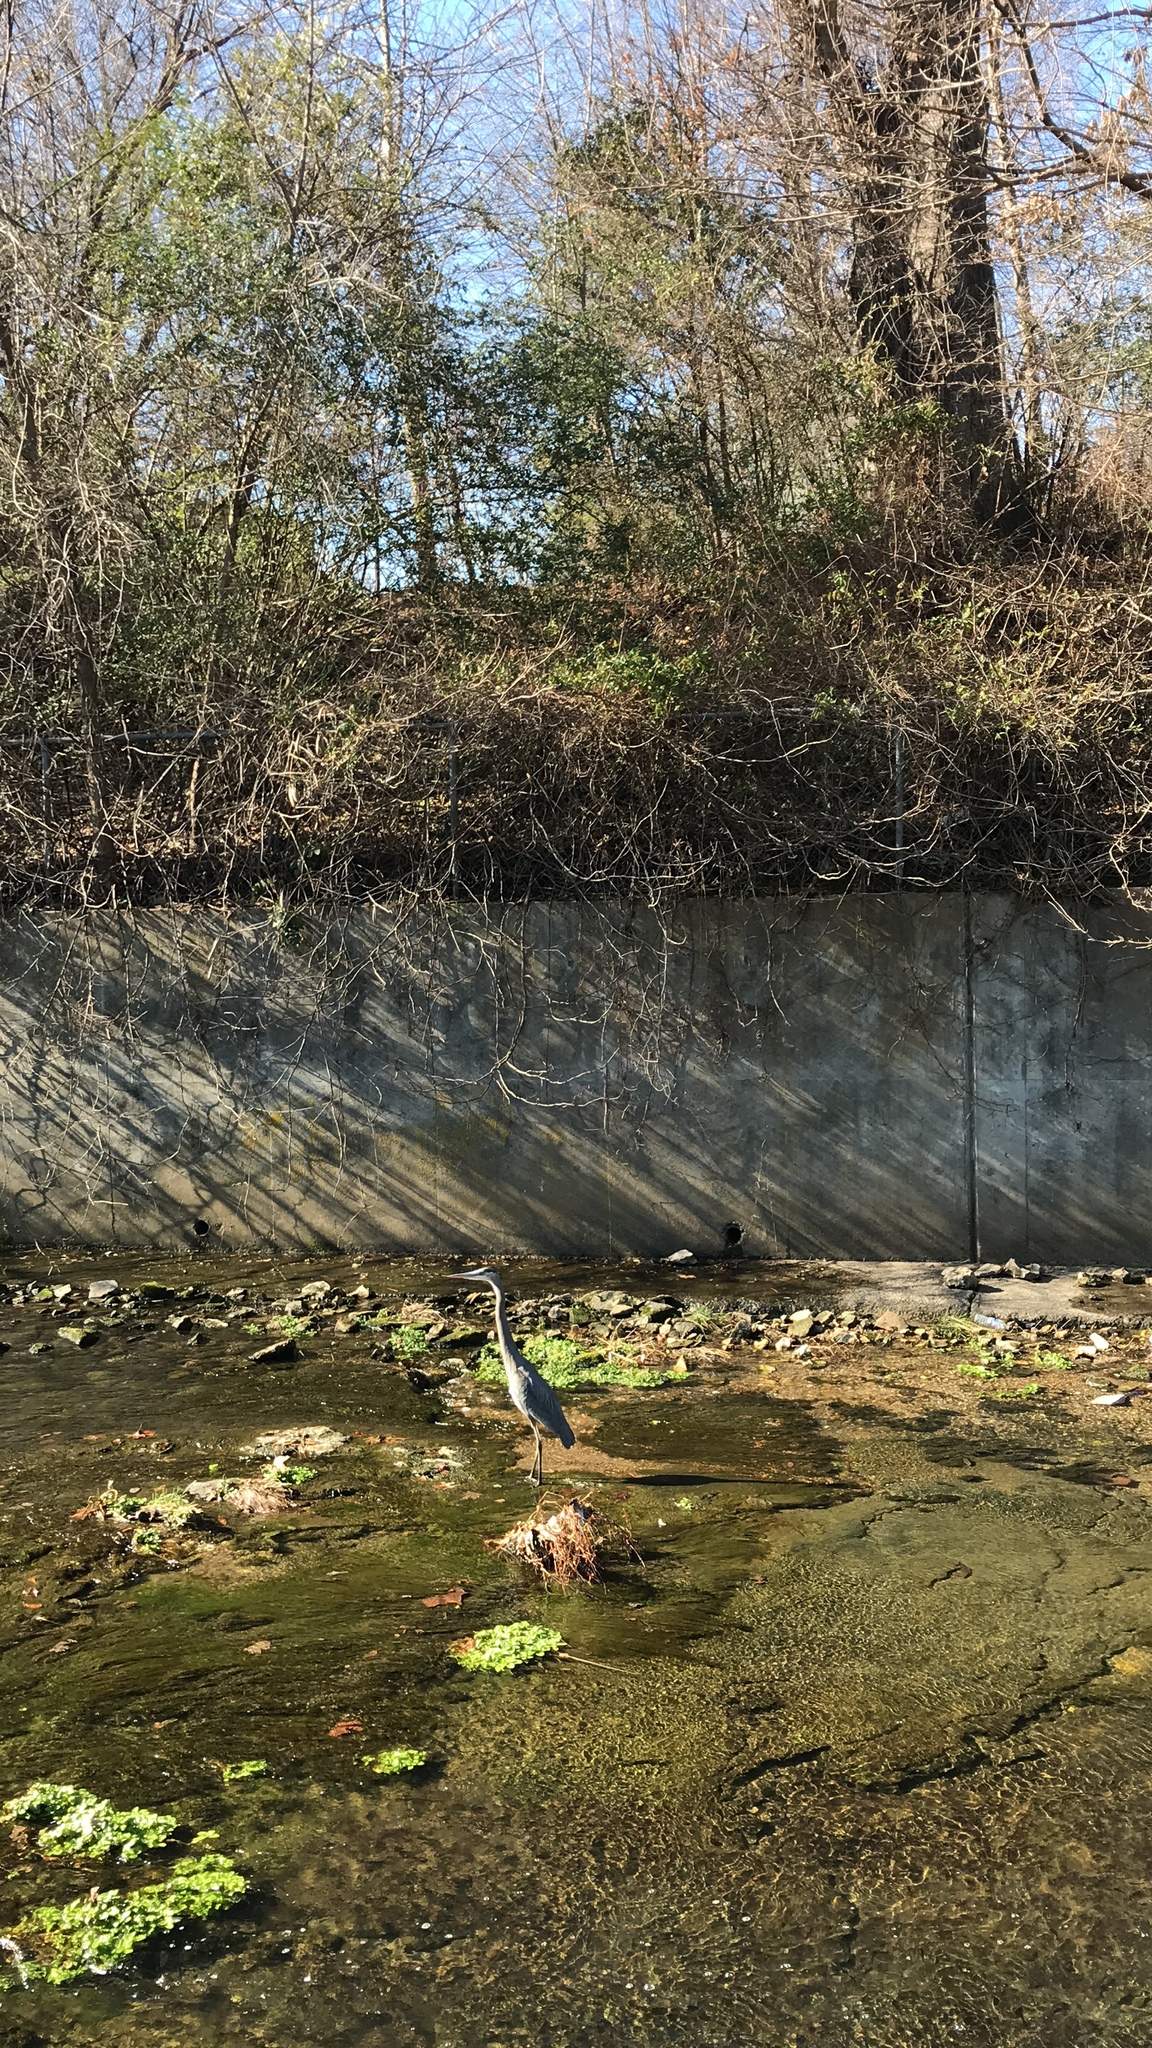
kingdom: Animalia
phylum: Chordata
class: Aves
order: Pelecaniformes
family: Ardeidae
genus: Ardea
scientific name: Ardea herodias
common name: Great blue heron
